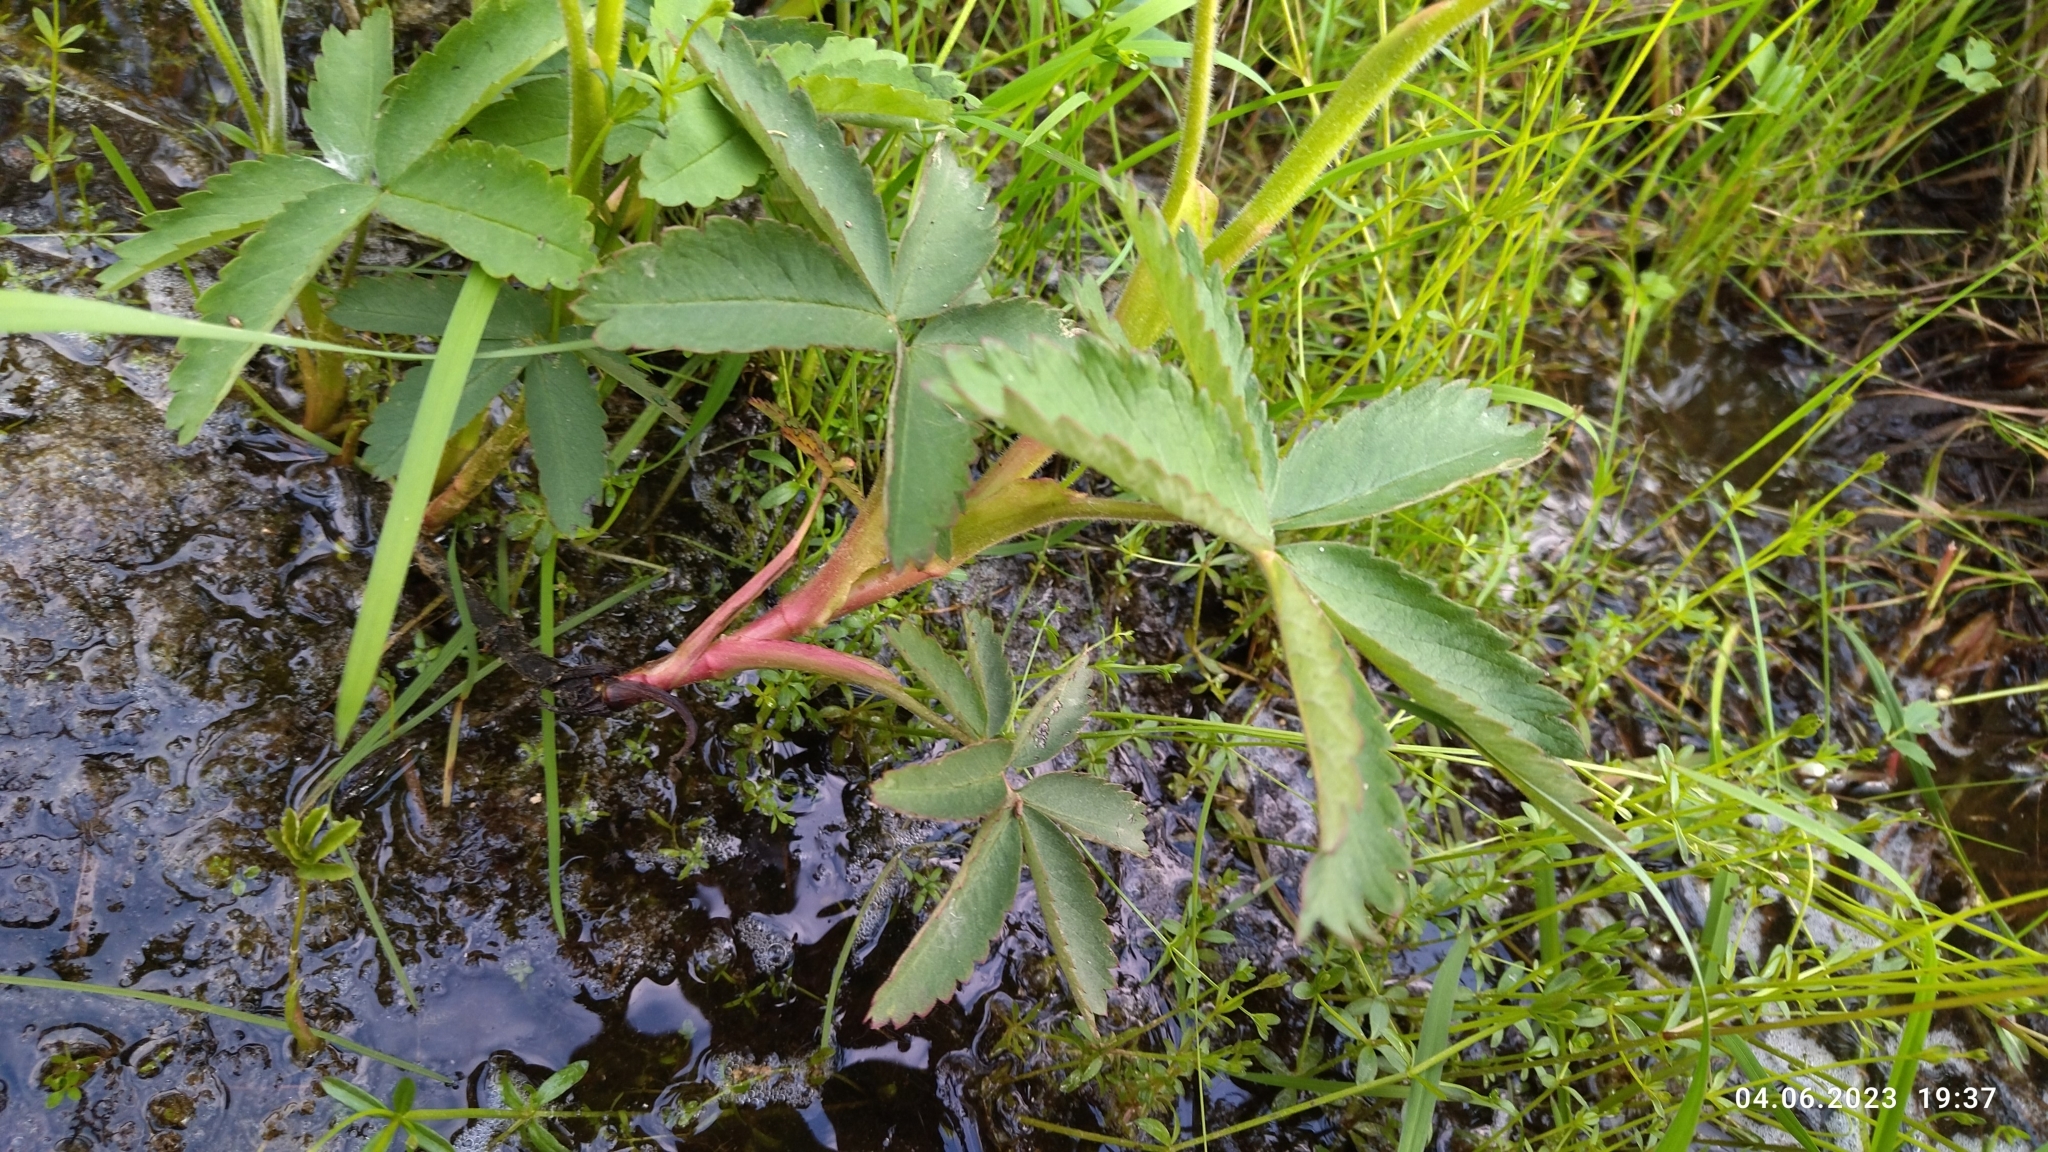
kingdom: Plantae
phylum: Tracheophyta
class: Magnoliopsida
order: Rosales
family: Rosaceae
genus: Comarum
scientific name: Comarum palustre
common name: Marsh cinquefoil
